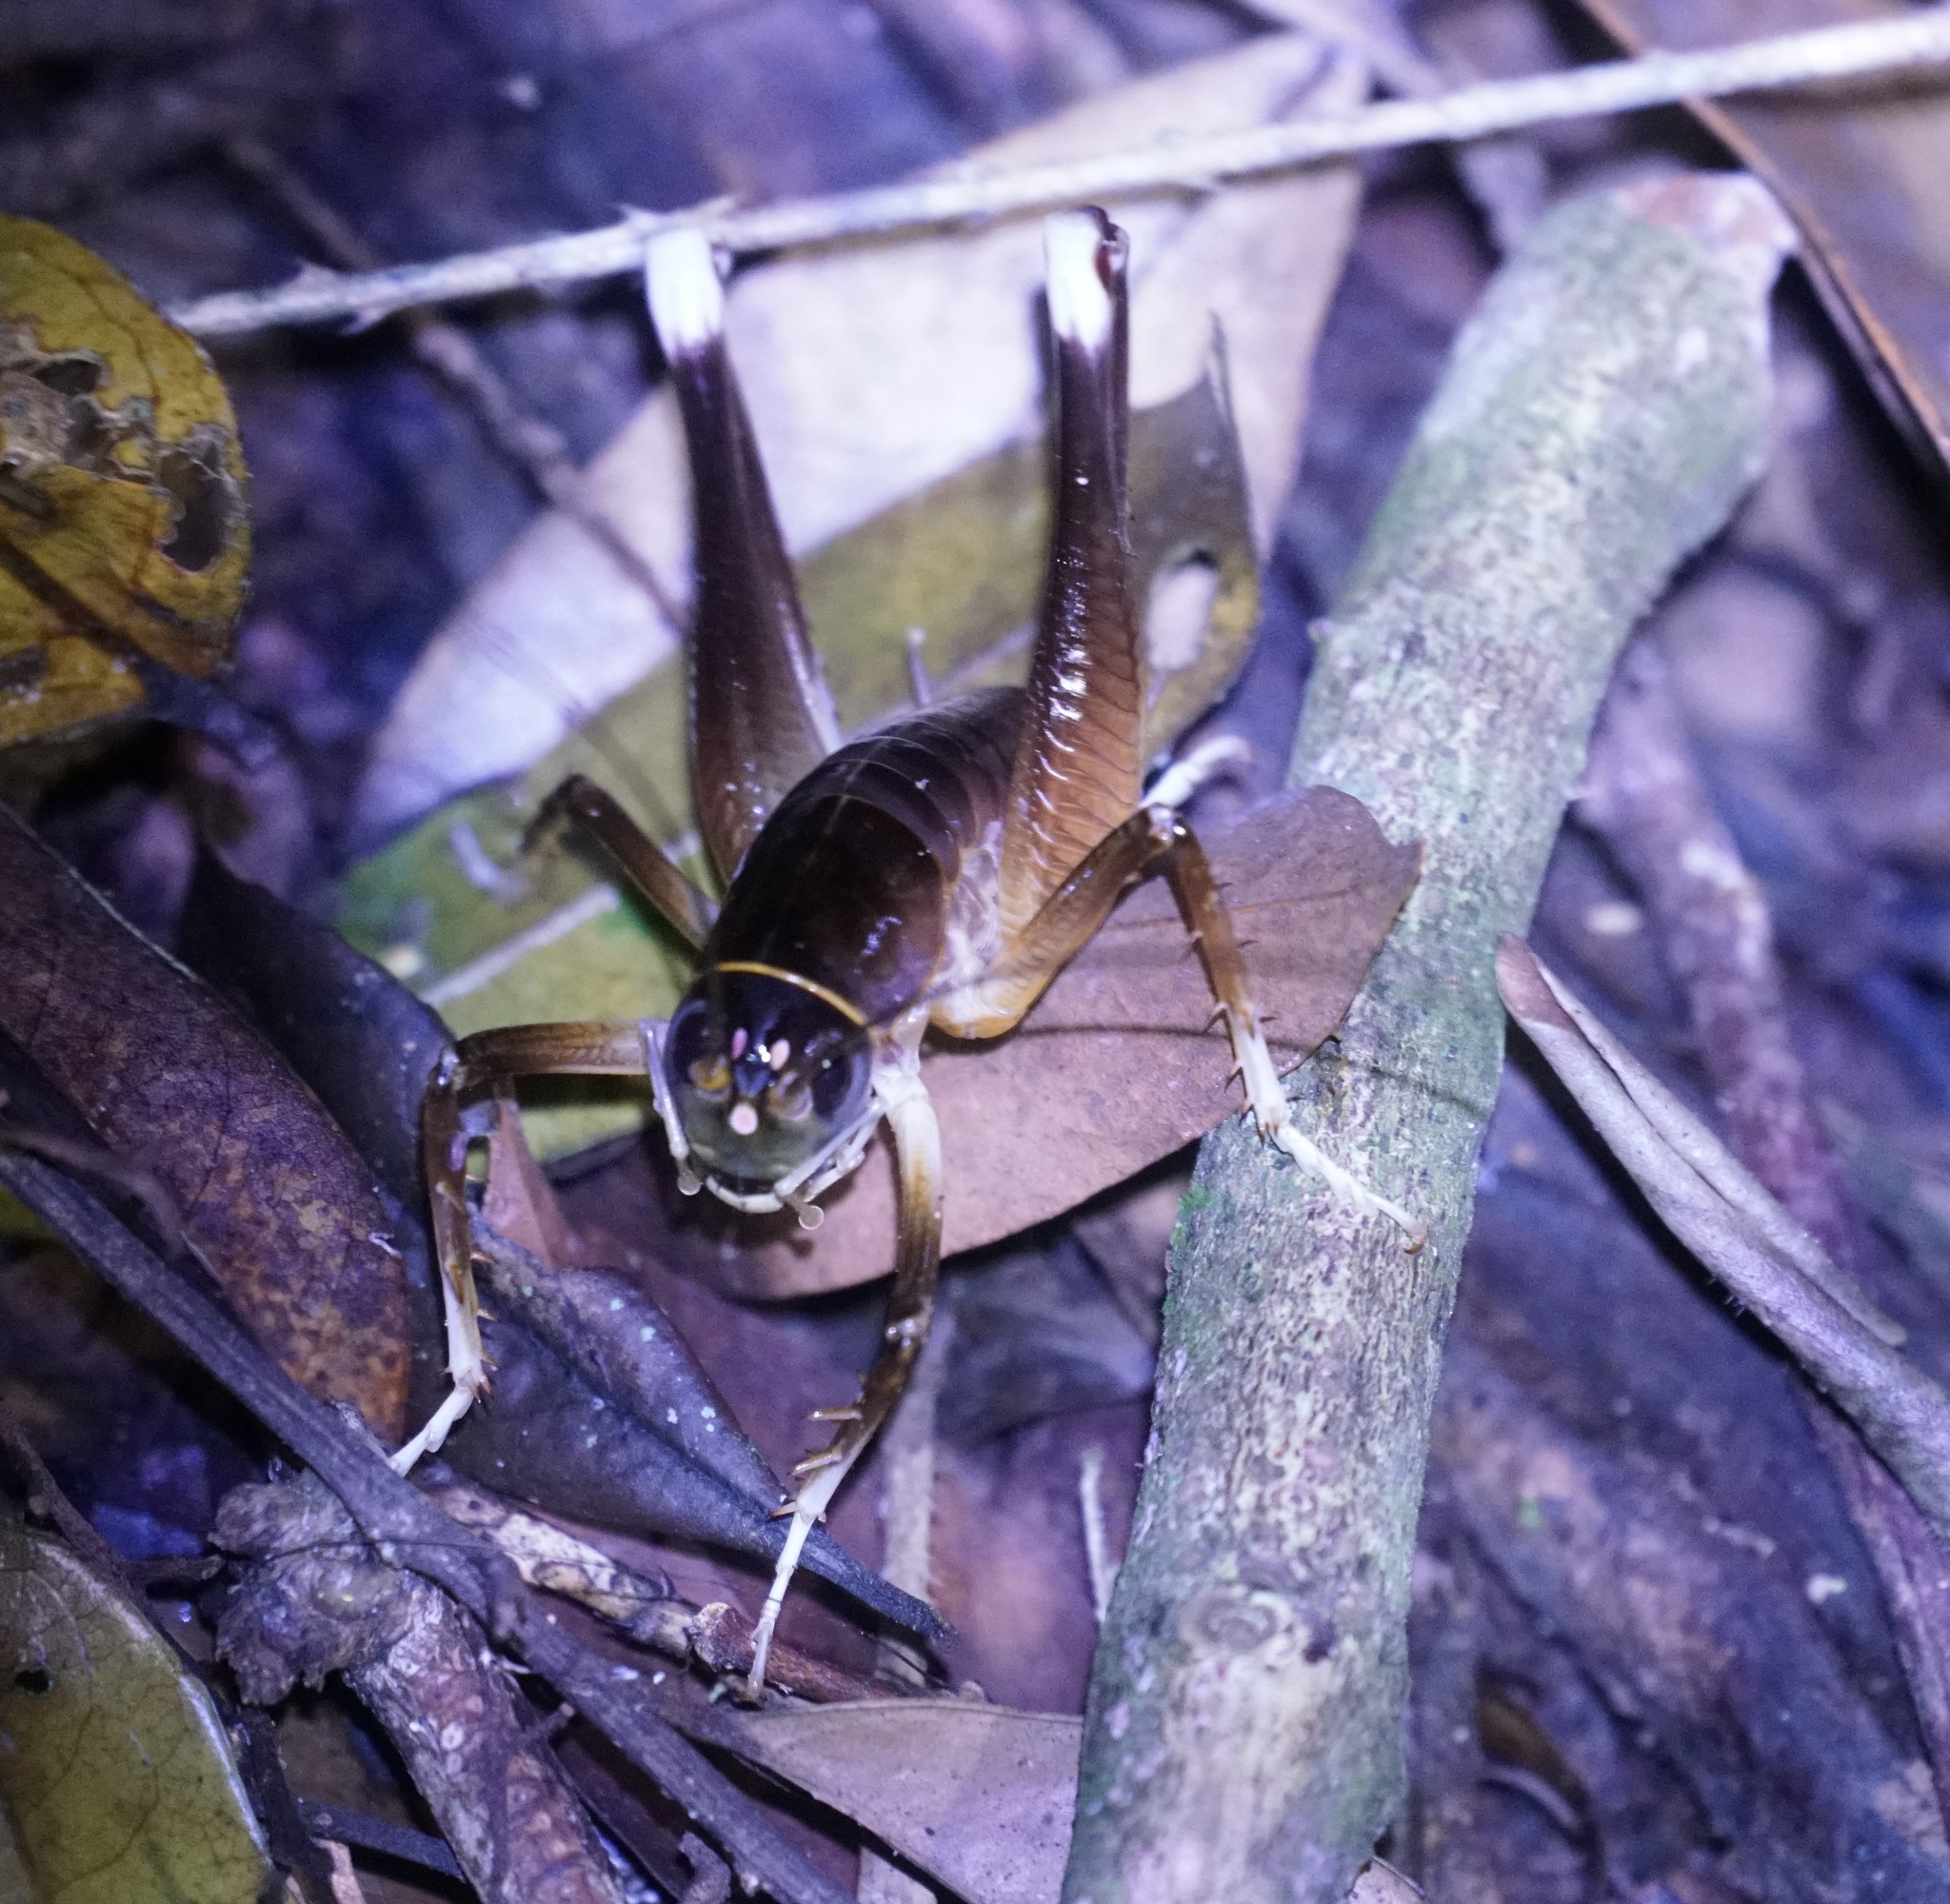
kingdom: Animalia
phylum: Arthropoda
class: Insecta
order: Orthoptera
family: Anostostomatidae
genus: Penalva
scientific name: Penalva flavocalceata
